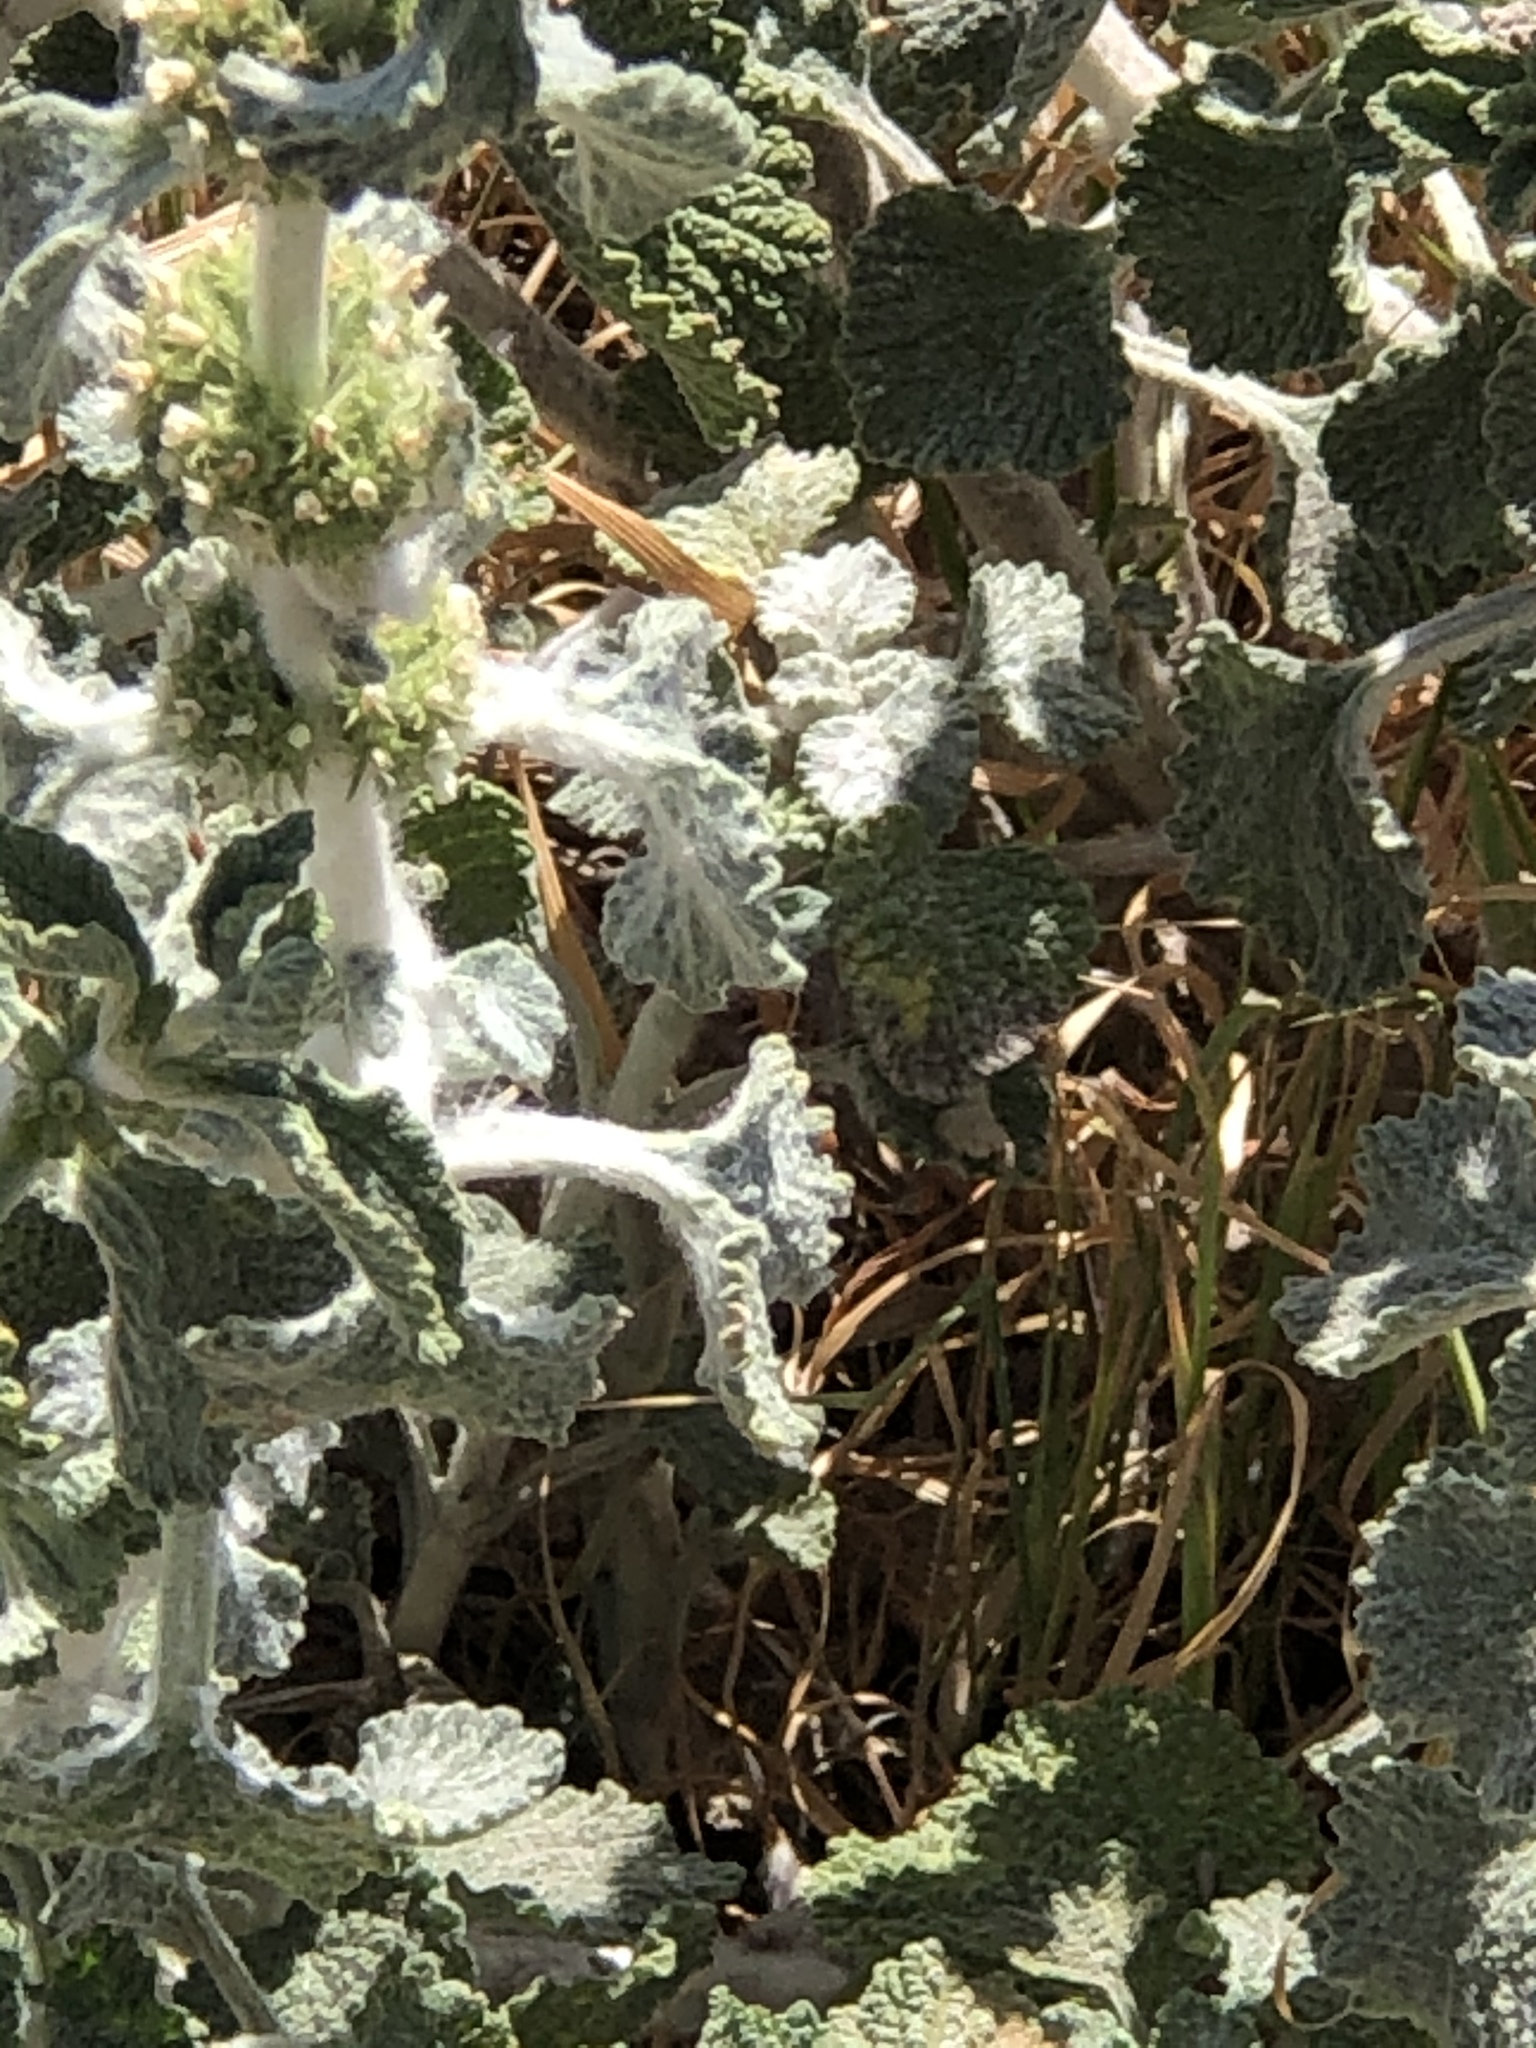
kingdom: Plantae
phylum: Tracheophyta
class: Magnoliopsida
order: Lamiales
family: Lamiaceae
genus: Marrubium
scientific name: Marrubium vulgare
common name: Horehound
